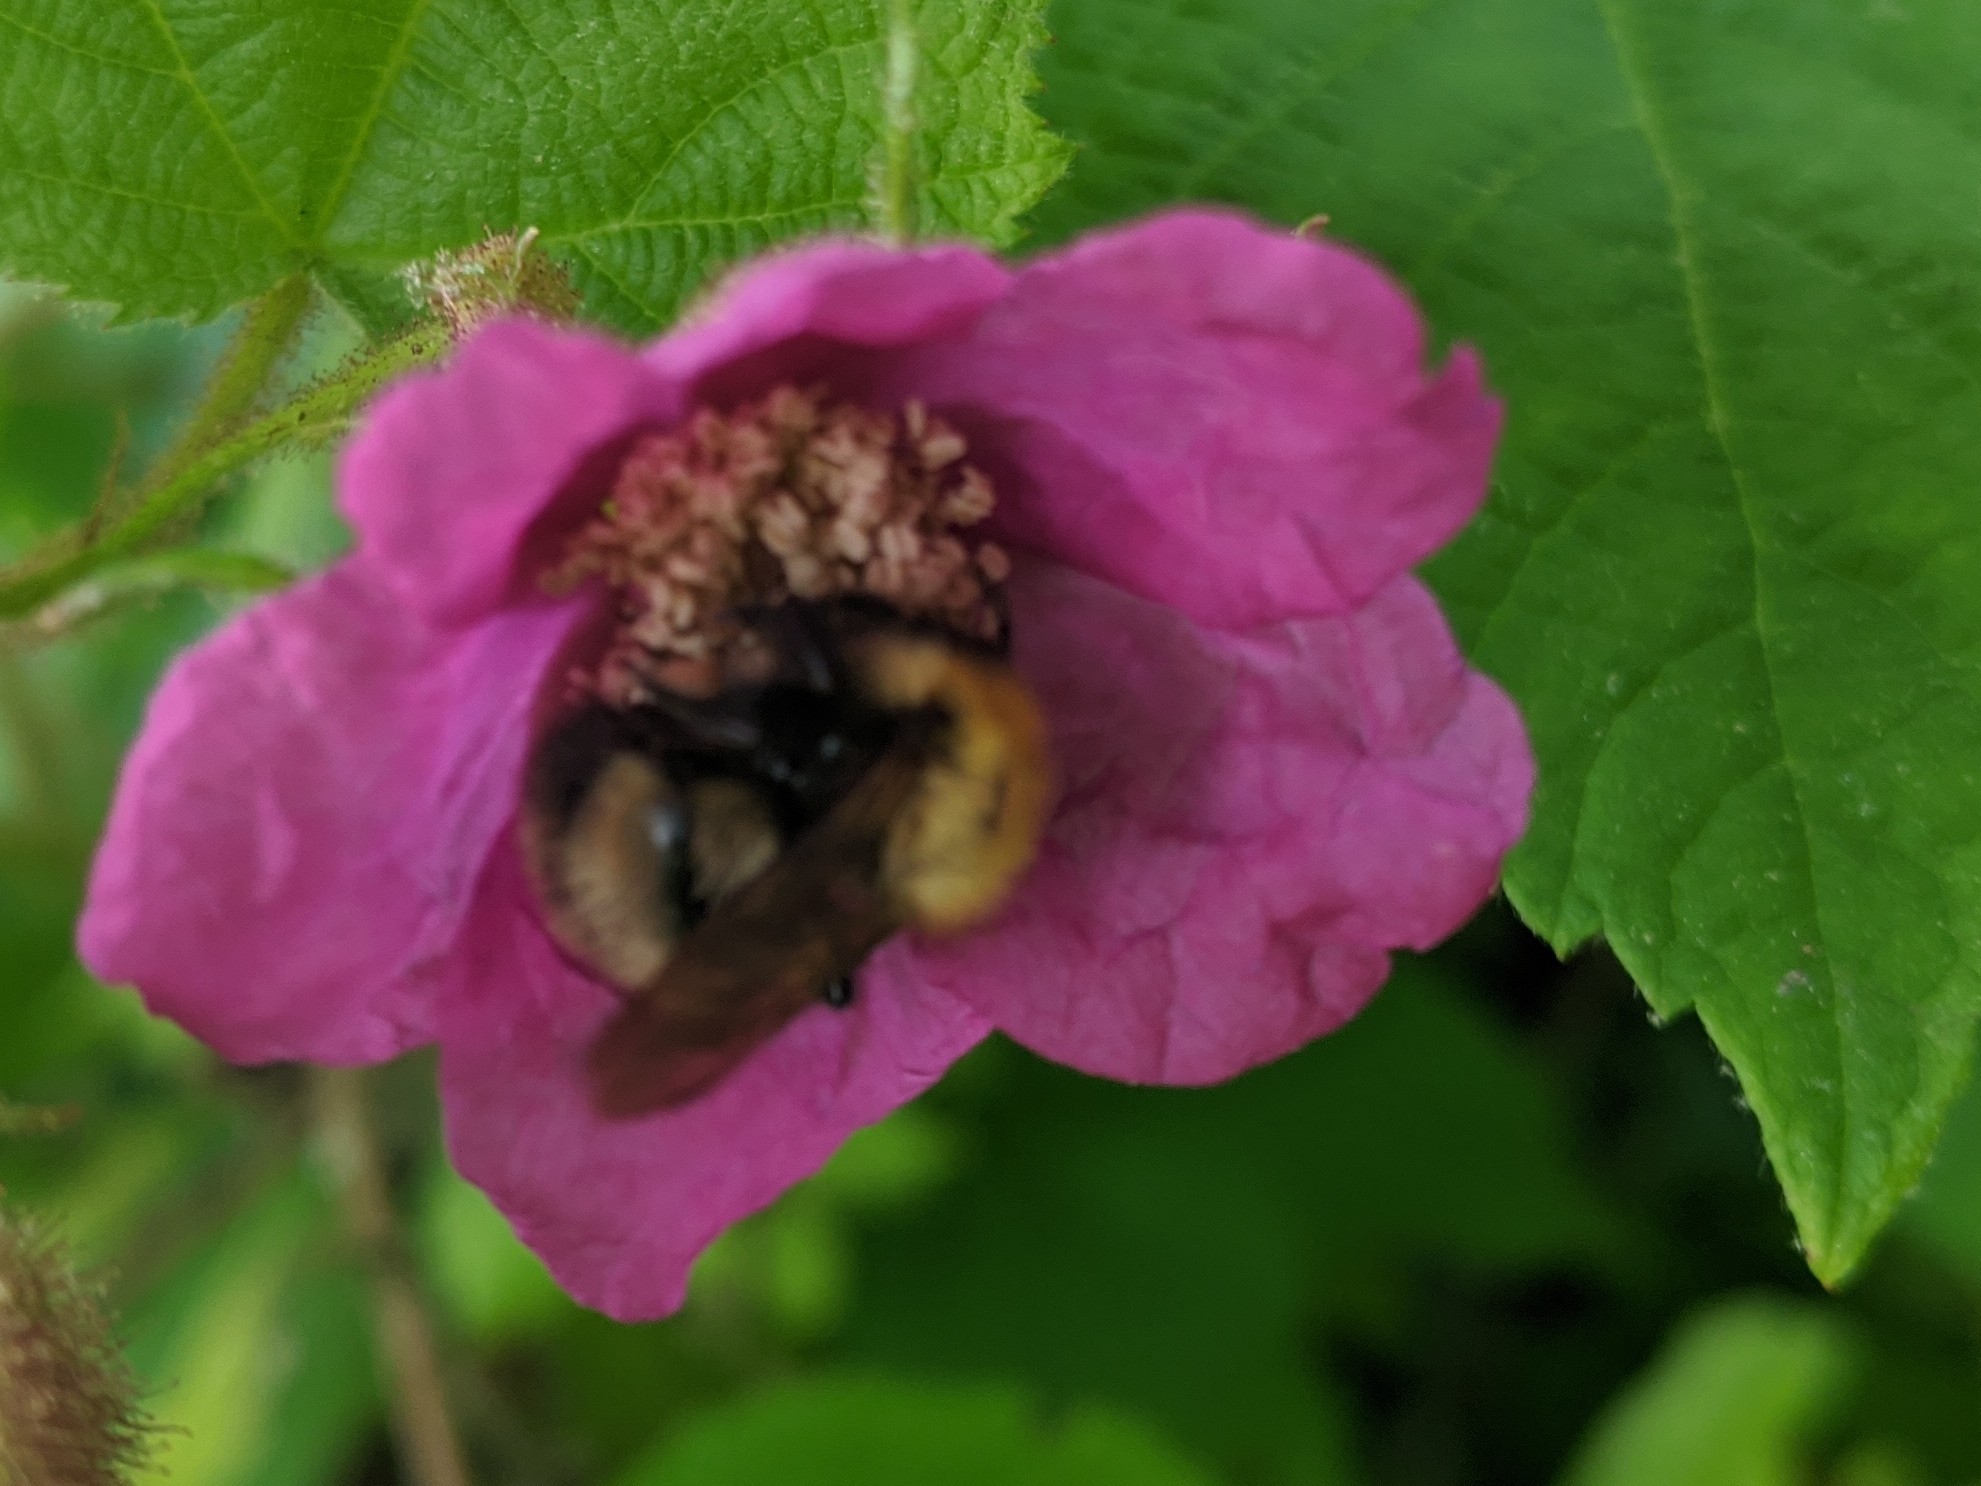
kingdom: Animalia
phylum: Arthropoda
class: Insecta
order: Hymenoptera
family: Apidae
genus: Bombus
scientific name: Bombus perplexus
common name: Confusing bumble bee
